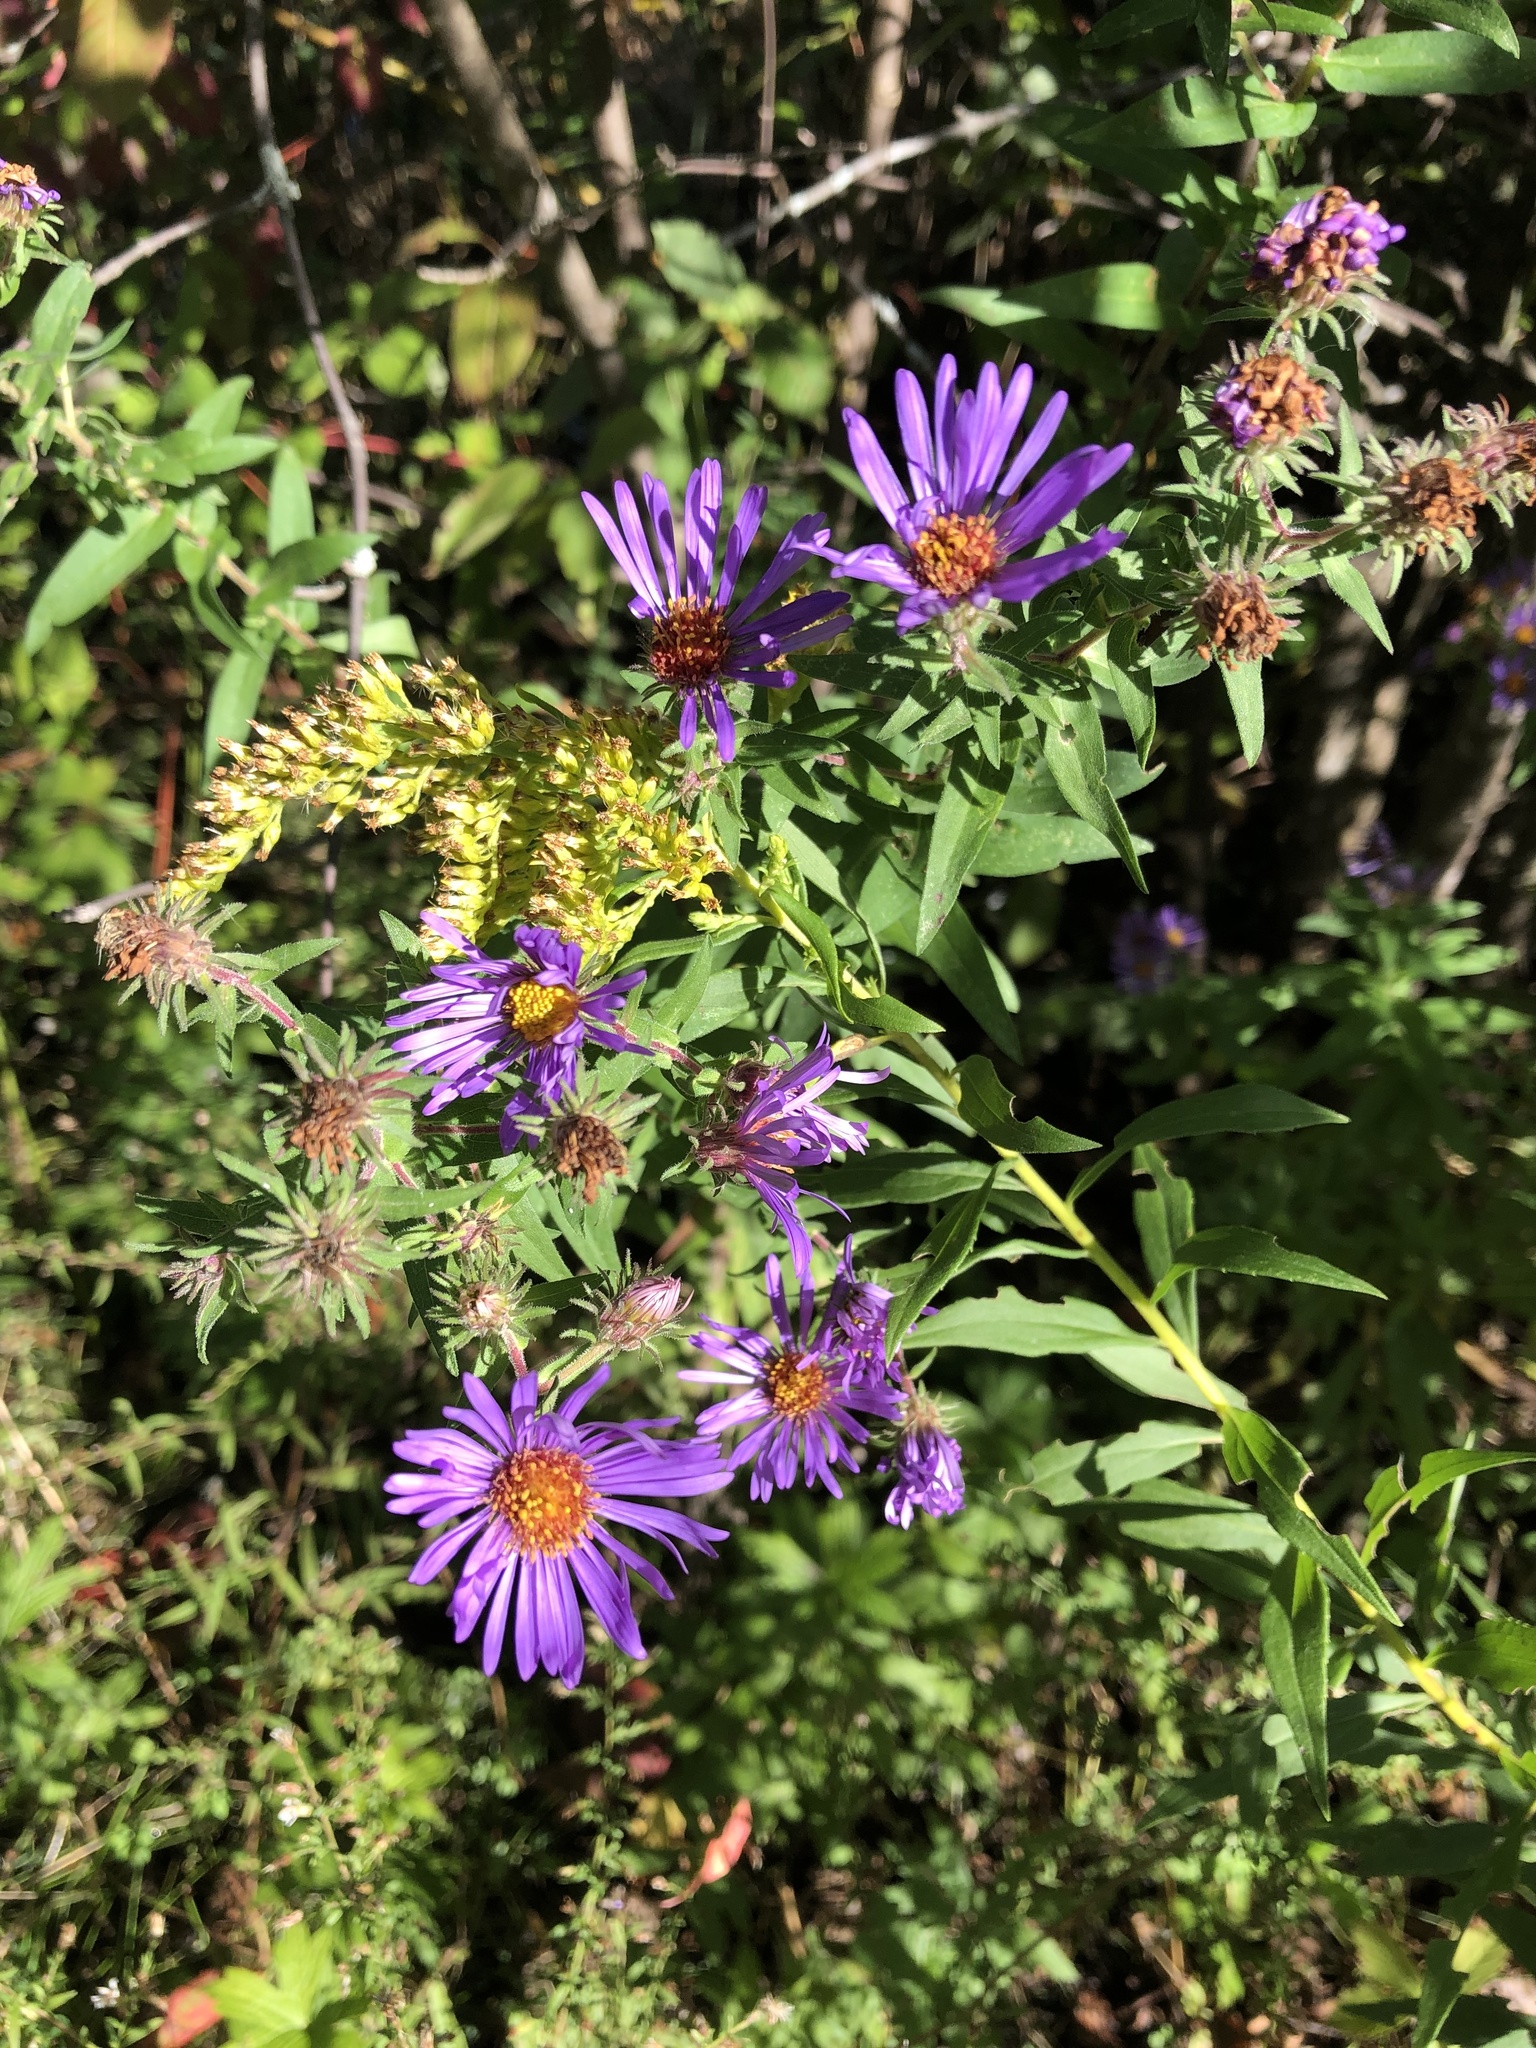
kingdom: Plantae
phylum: Tracheophyta
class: Magnoliopsida
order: Asterales
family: Asteraceae
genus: Symphyotrichum
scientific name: Symphyotrichum novae-angliae
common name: Michaelmas daisy
